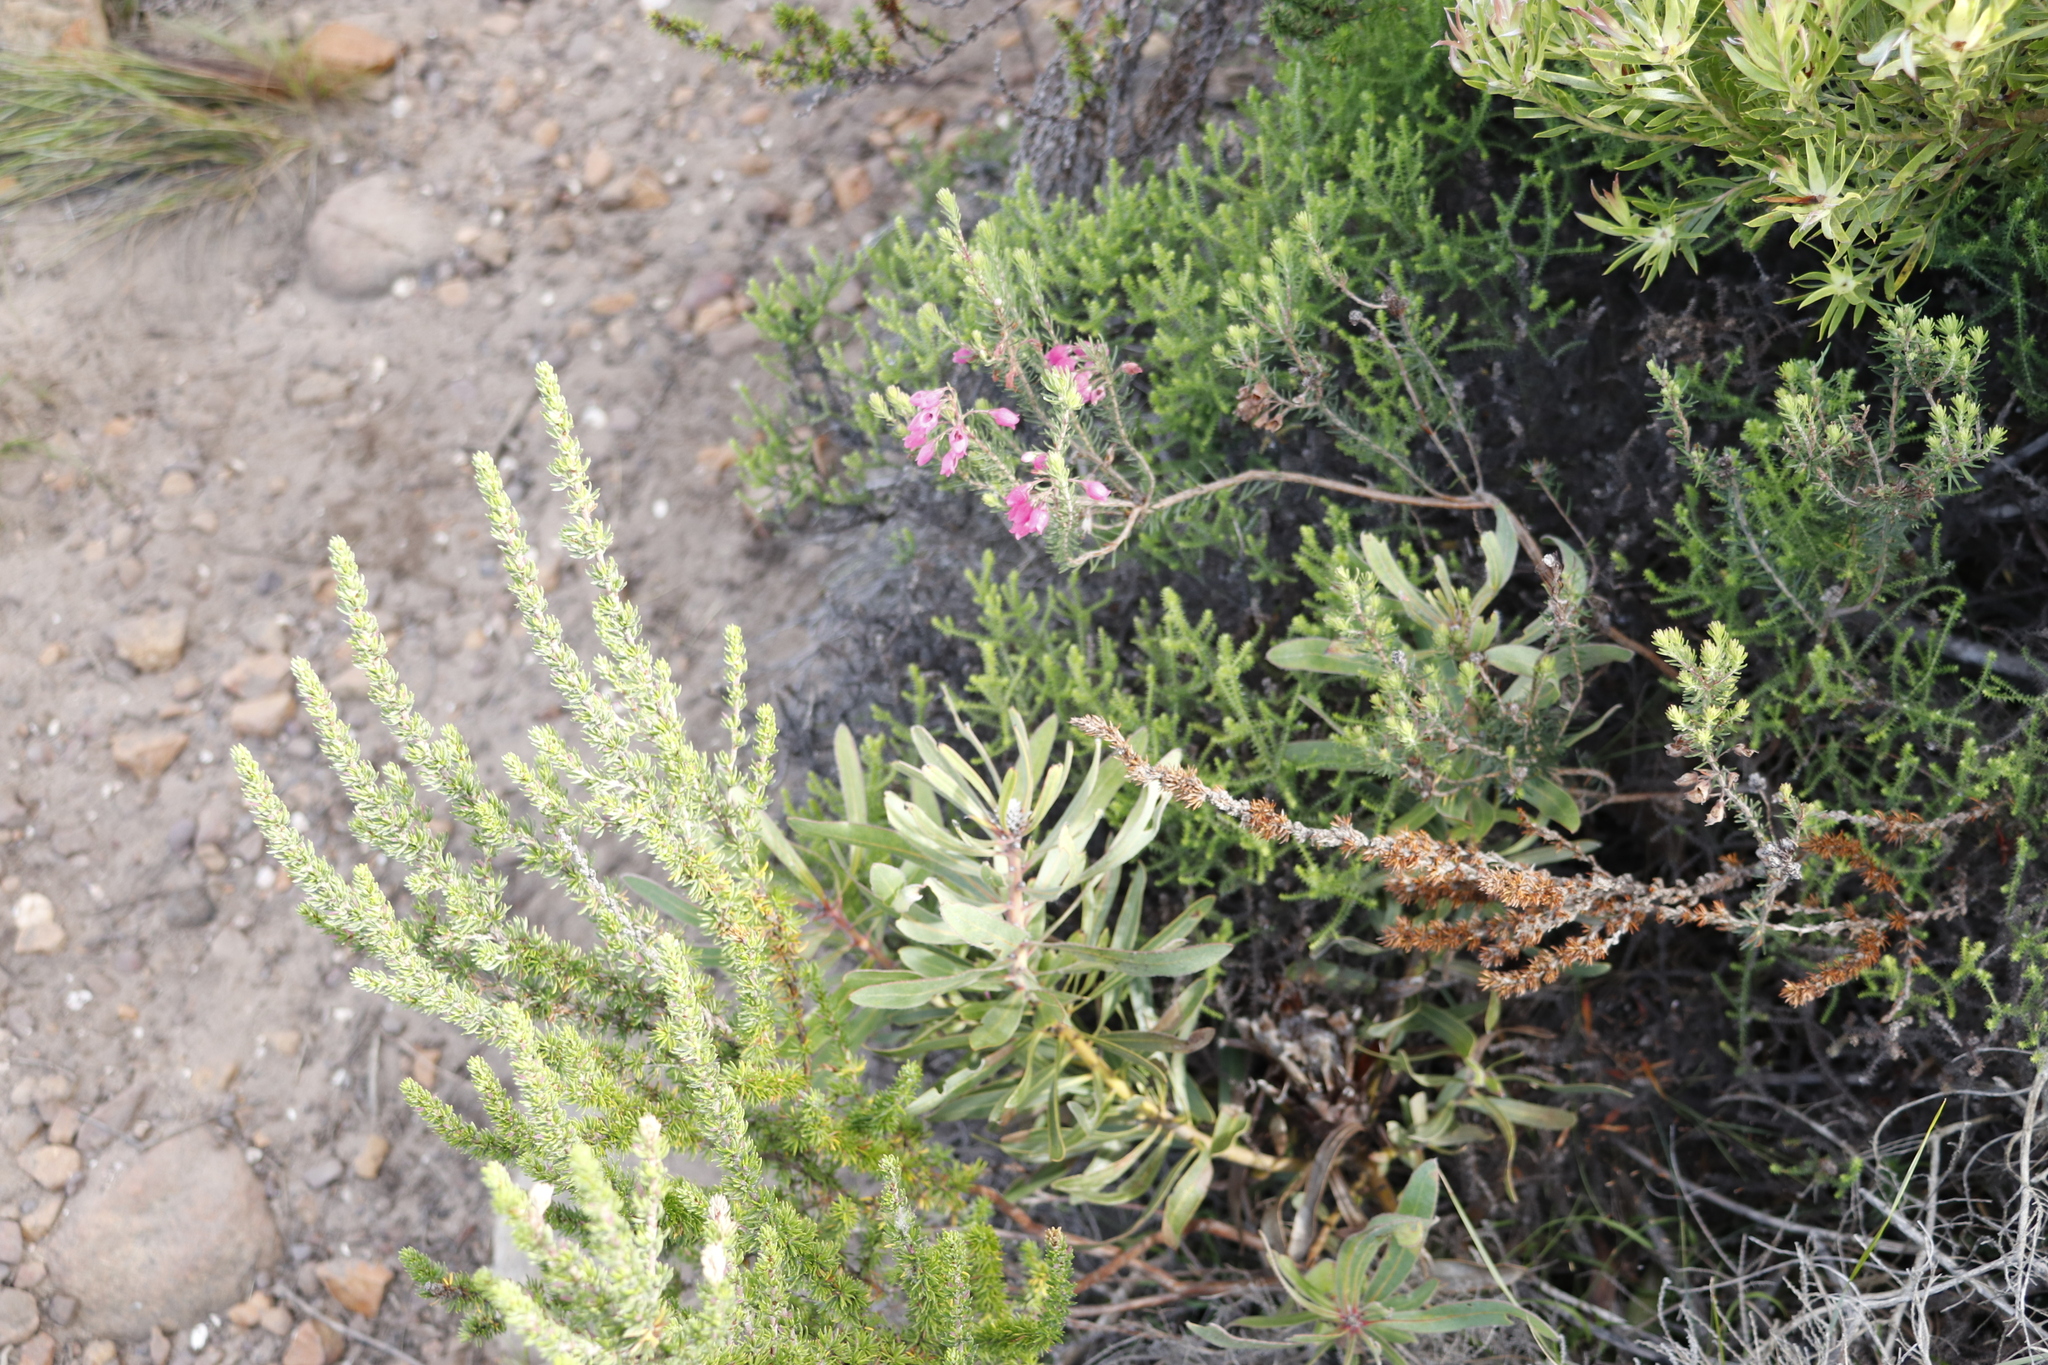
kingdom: Plantae
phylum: Tracheophyta
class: Magnoliopsida
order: Ericales
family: Ericaceae
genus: Erica
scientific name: Erica viscaria
